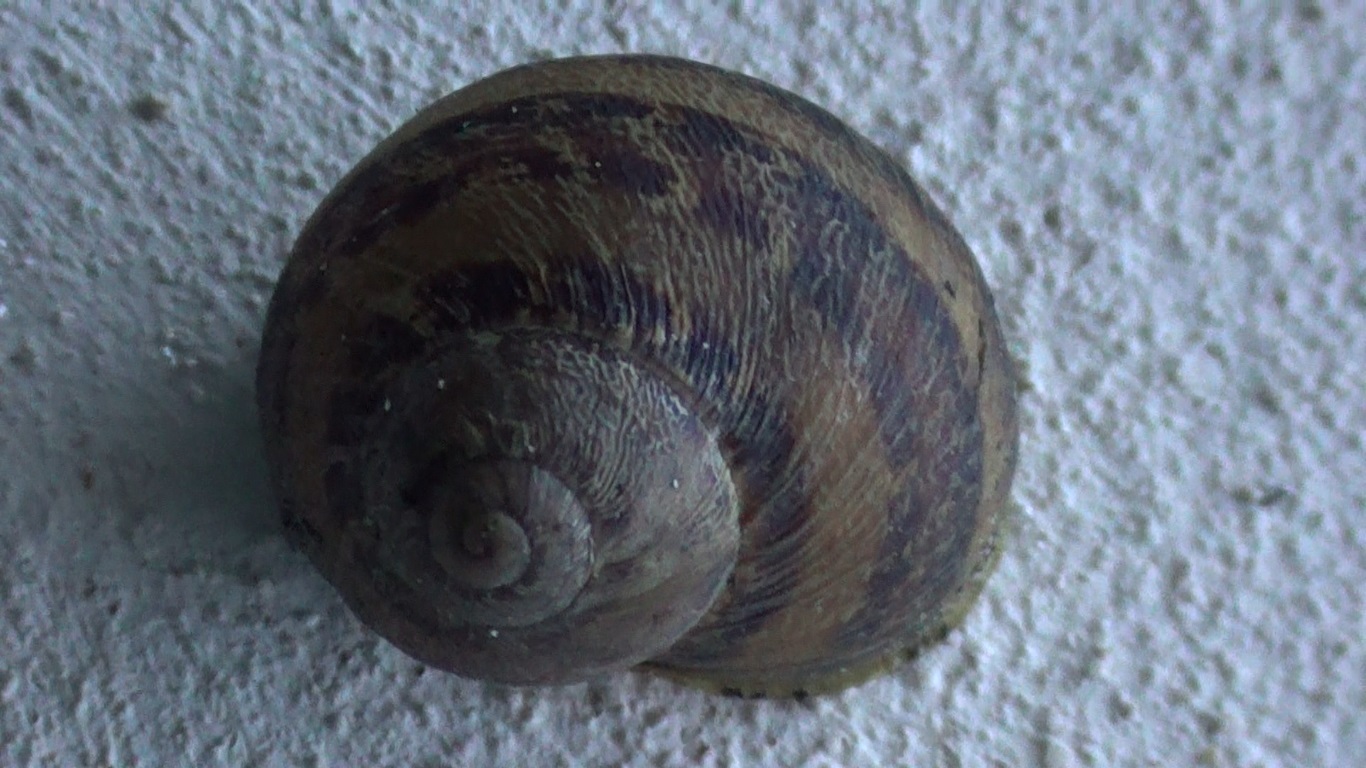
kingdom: Animalia
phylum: Mollusca
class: Gastropoda
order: Stylommatophora
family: Helicidae
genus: Cornu
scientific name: Cornu aspersum
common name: Brown garden snail
